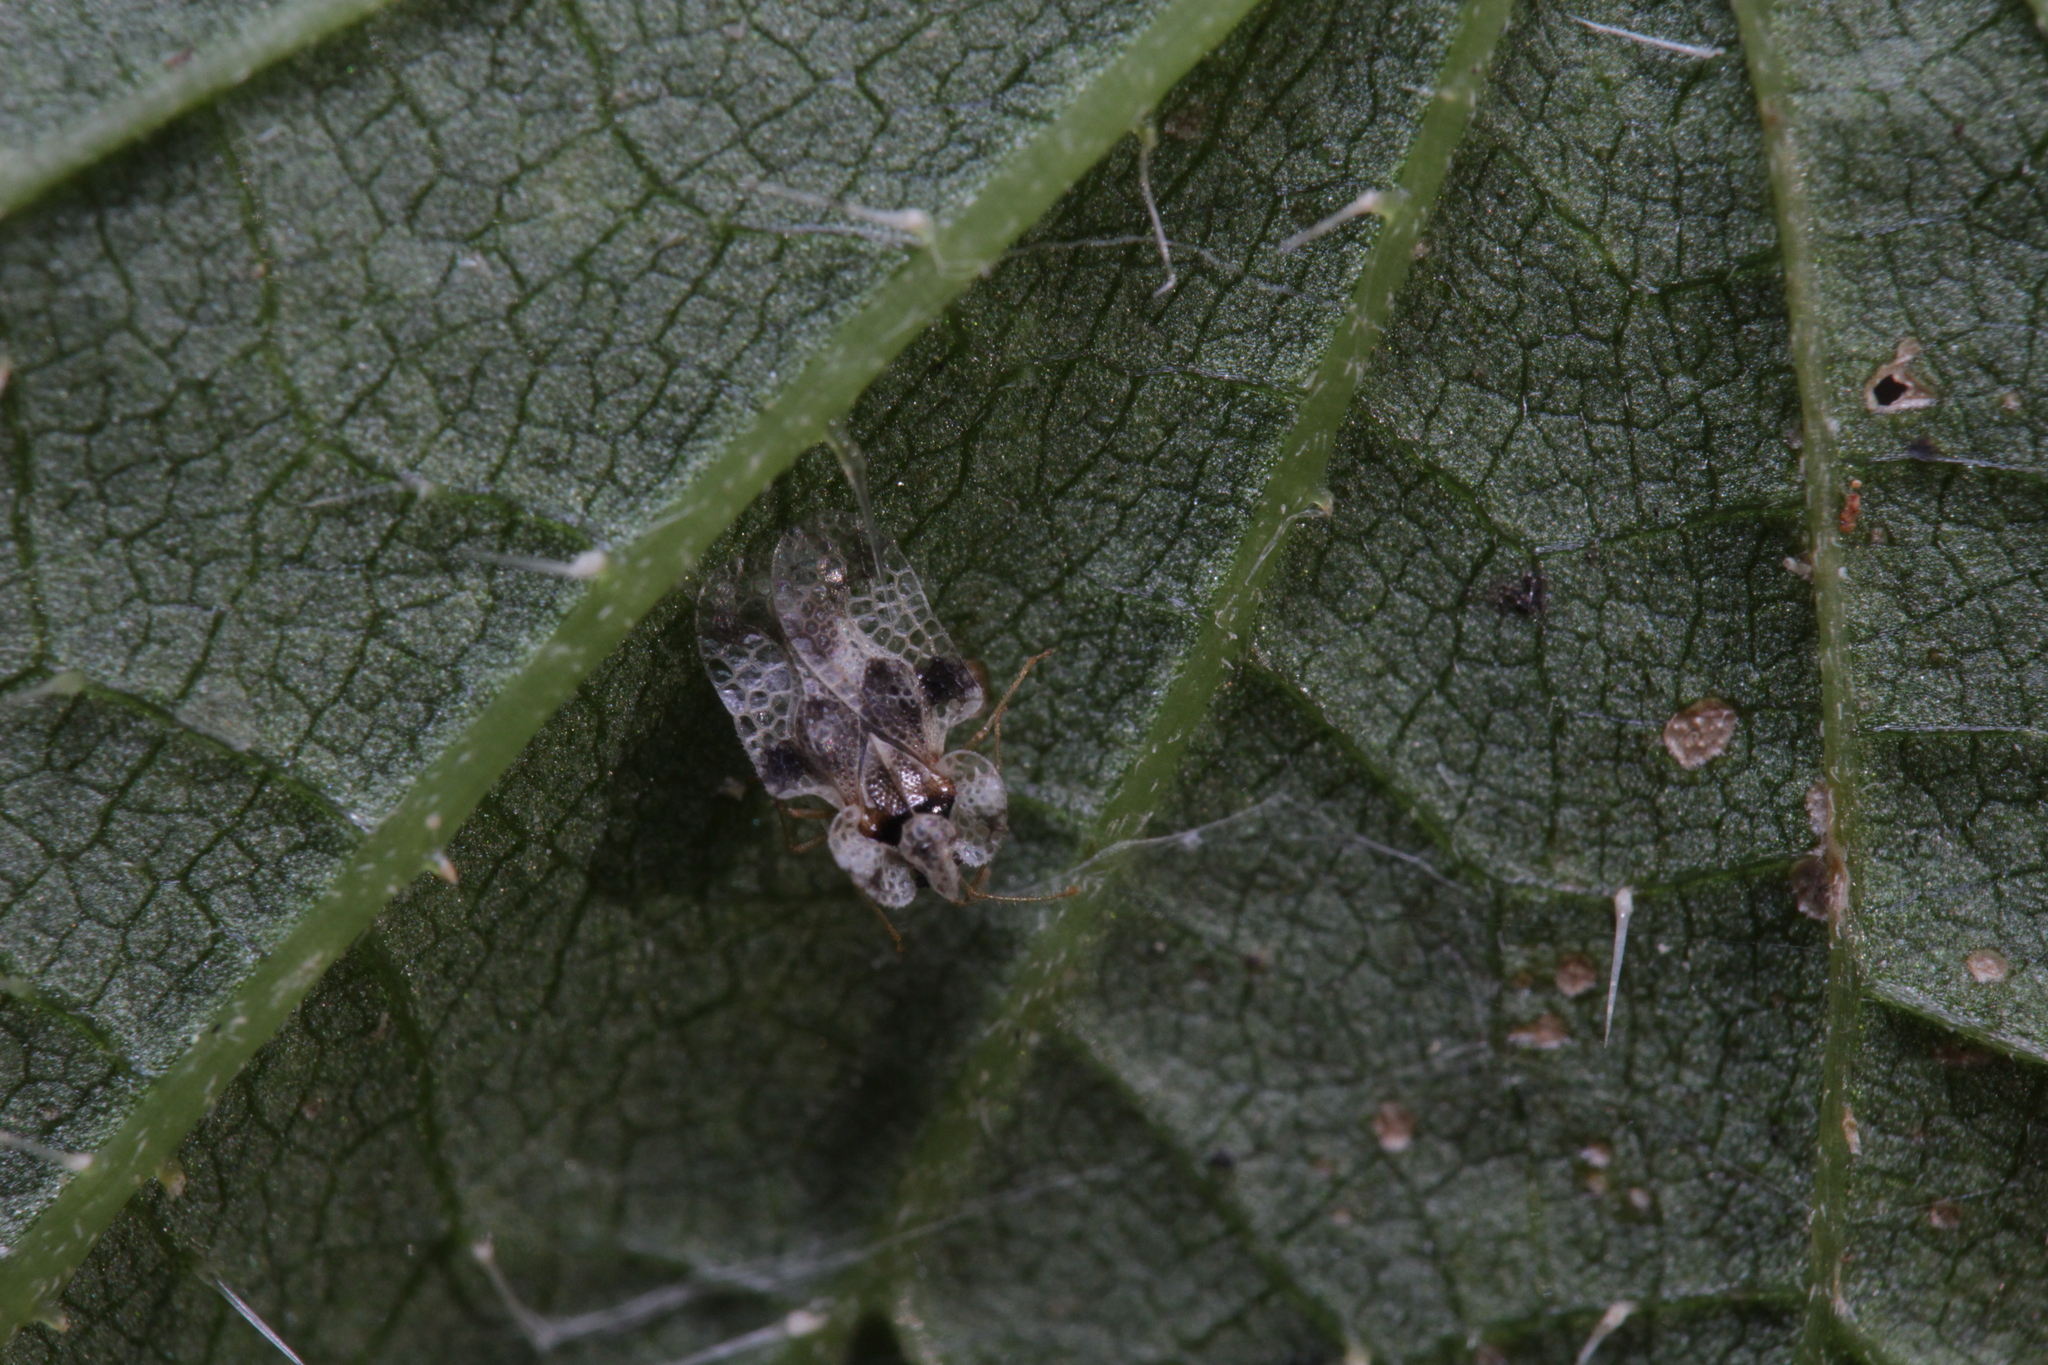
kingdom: Animalia
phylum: Arthropoda
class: Insecta
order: Hemiptera
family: Tingidae
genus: Corythucha
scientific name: Corythucha arcuata
